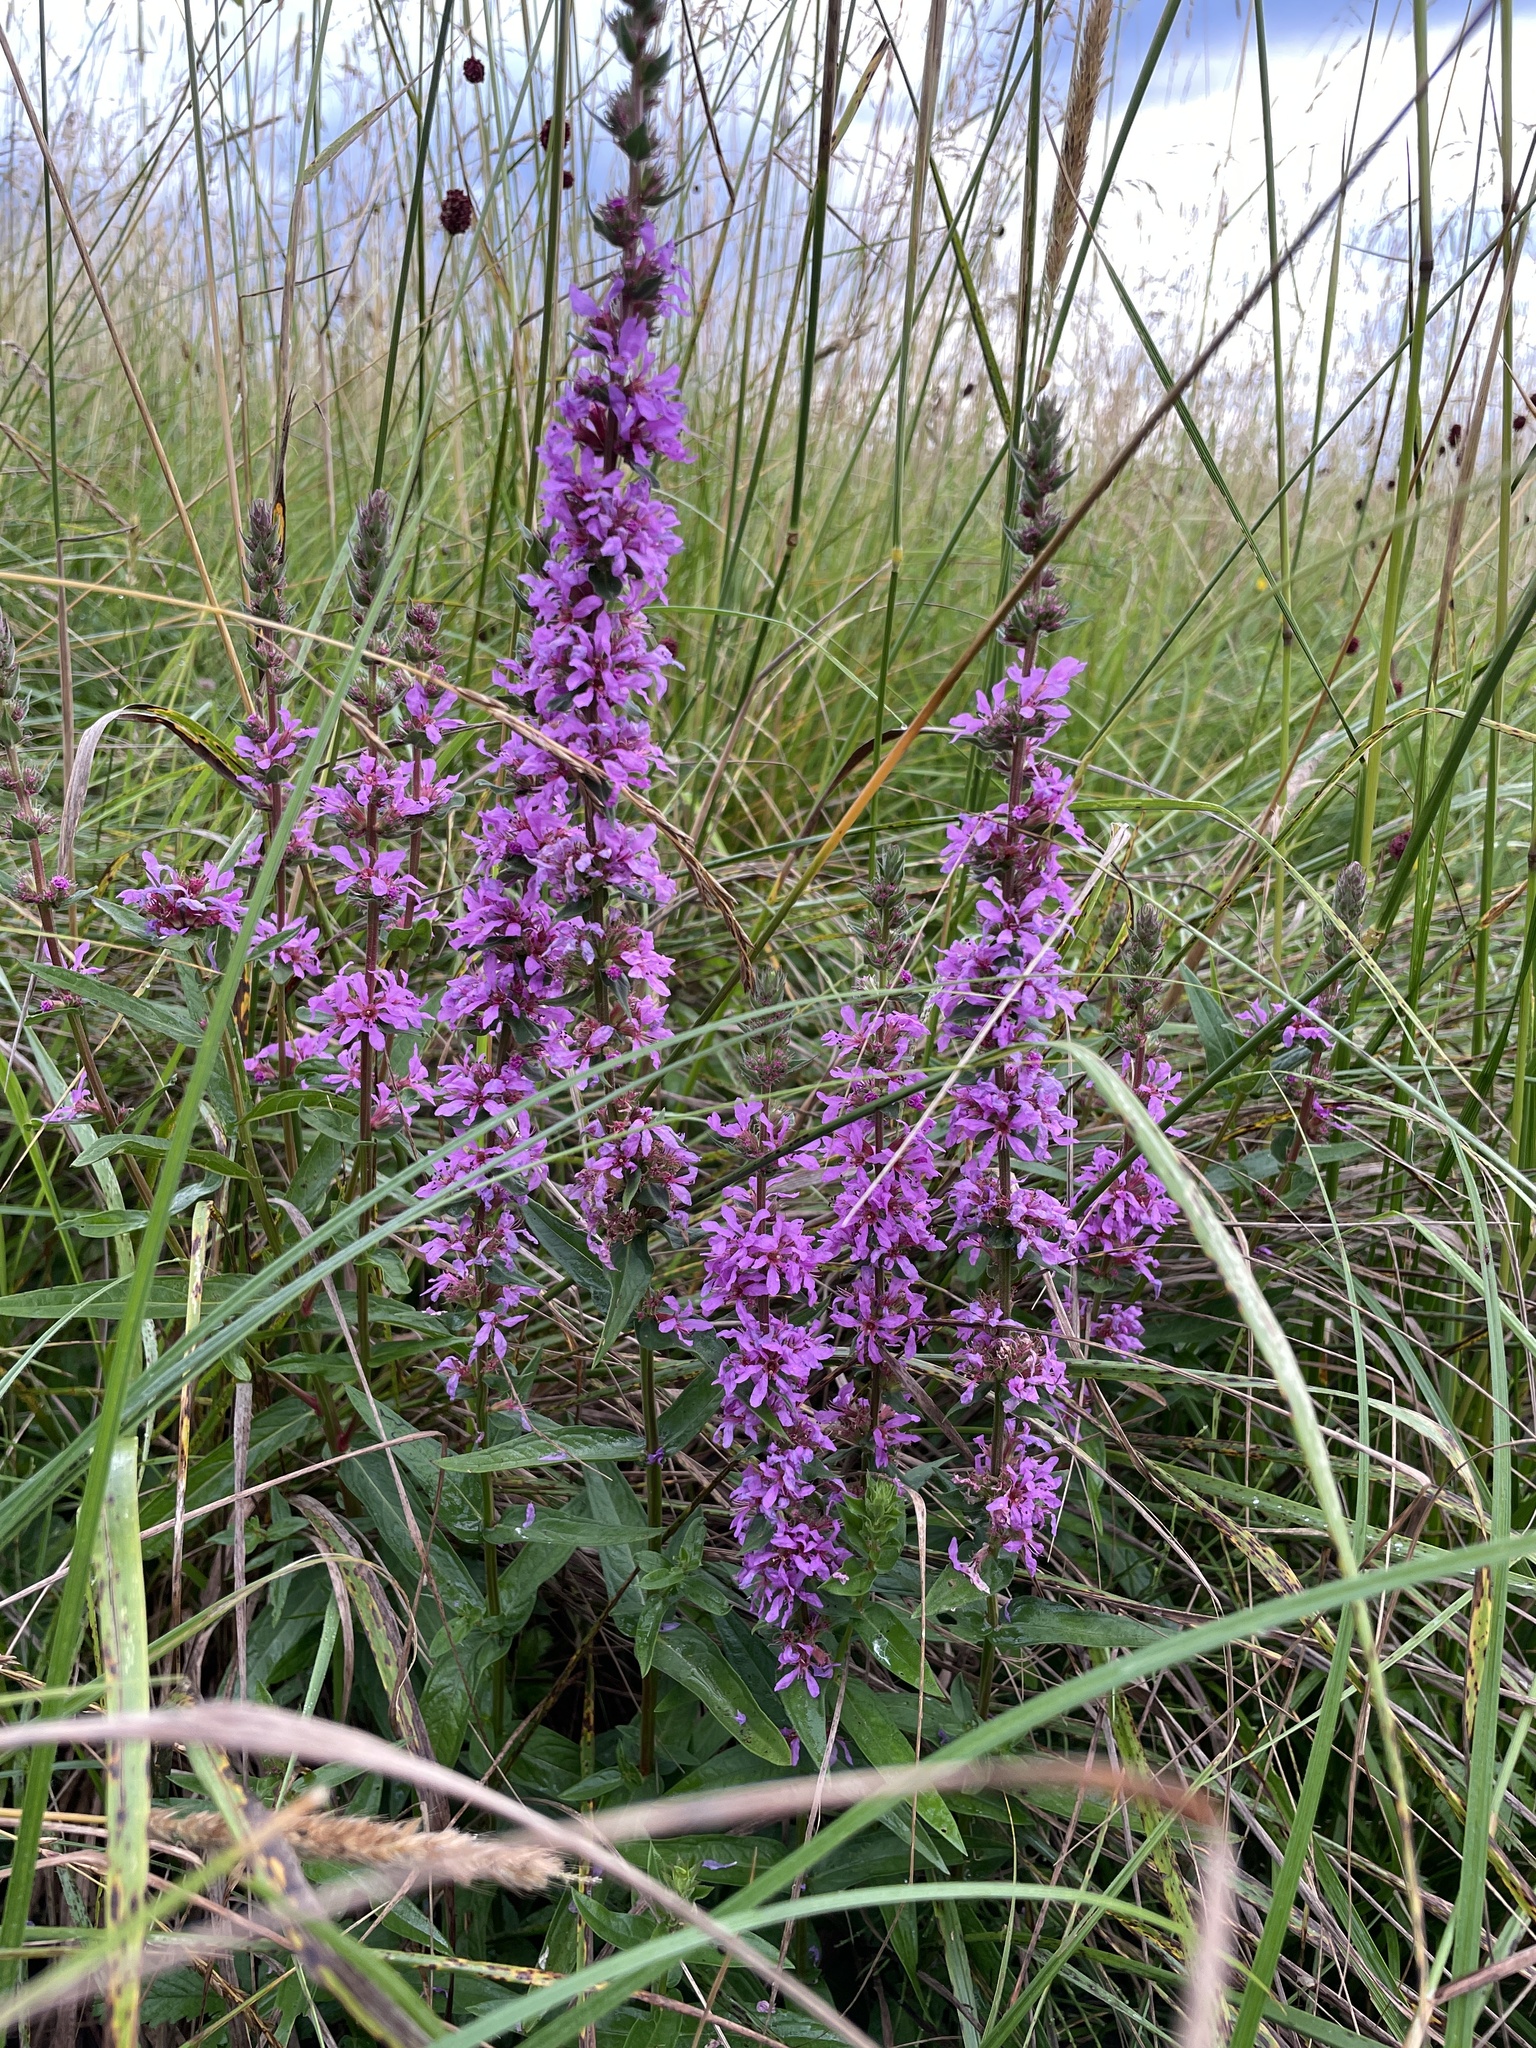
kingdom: Plantae
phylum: Tracheophyta
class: Magnoliopsida
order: Myrtales
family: Lythraceae
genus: Lythrum
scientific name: Lythrum salicaria
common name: Purple loosestrife
